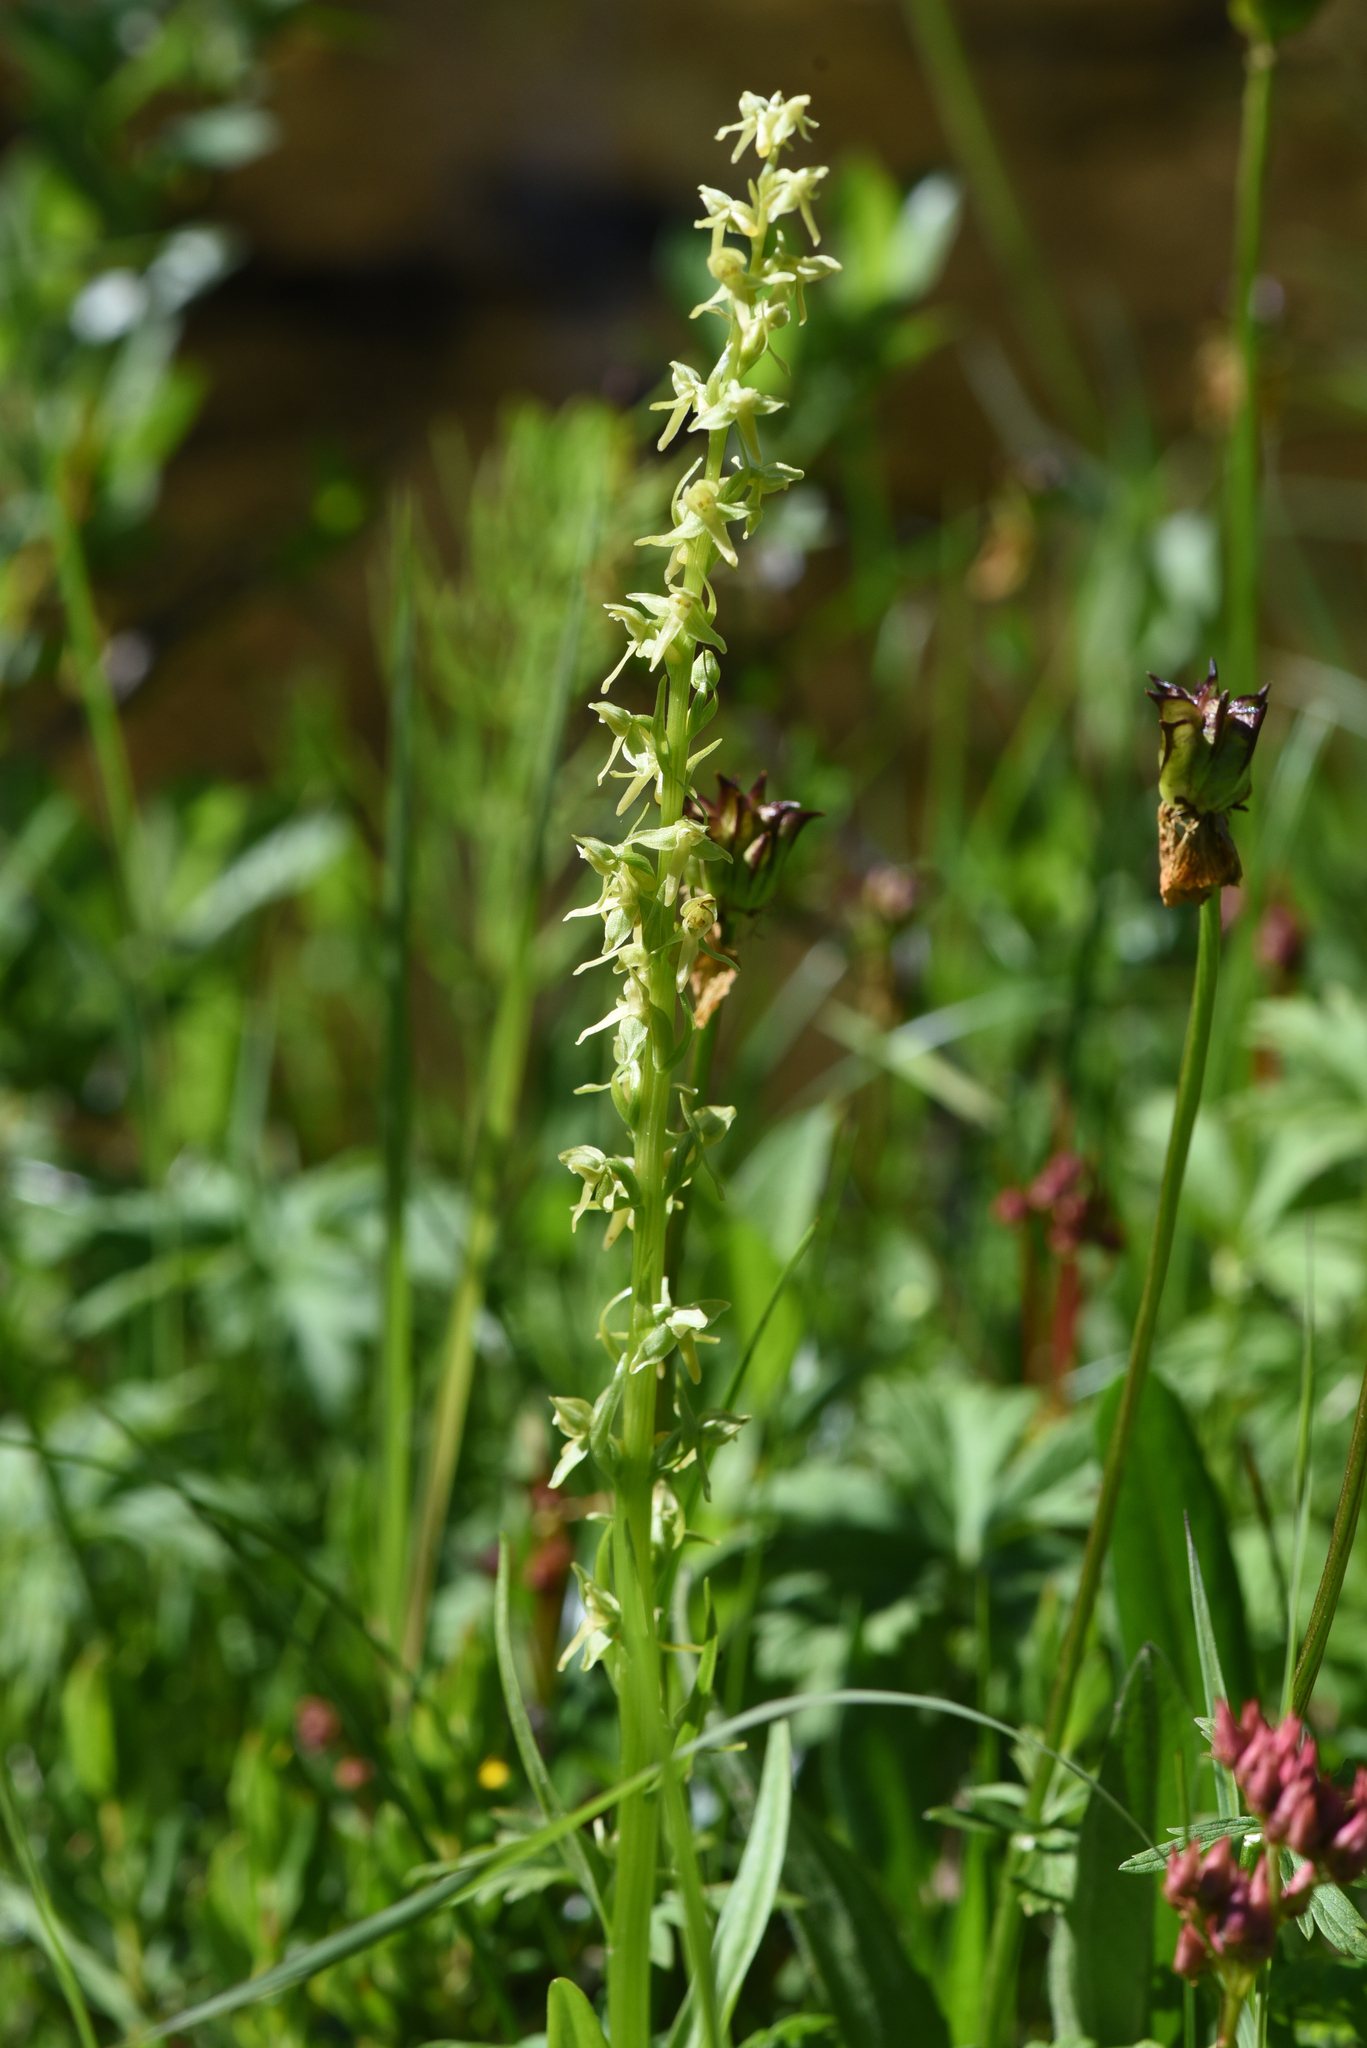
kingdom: Plantae
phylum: Tracheophyta
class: Liliopsida
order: Asparagales
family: Orchidaceae
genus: Platanthera
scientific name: Platanthera stricta
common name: Slender bog orchid
